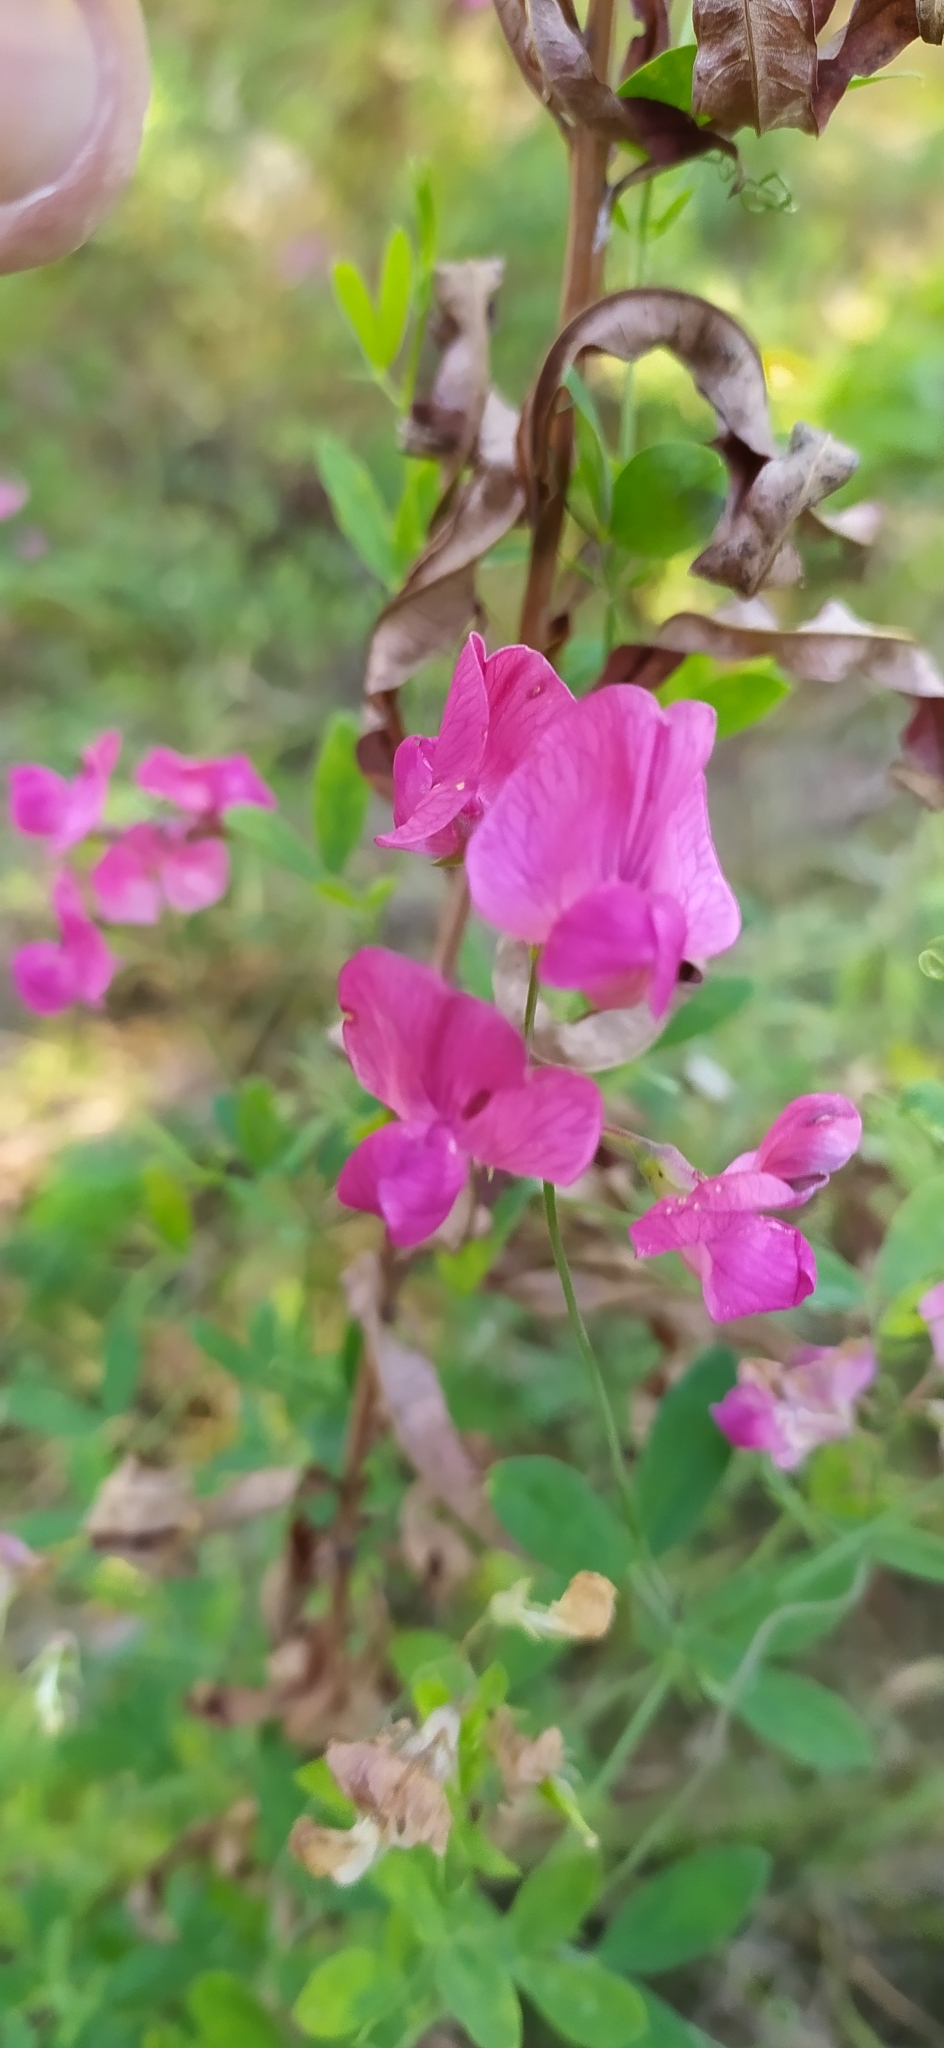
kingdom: Plantae
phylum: Tracheophyta
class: Magnoliopsida
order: Fabales
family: Fabaceae
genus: Lathyrus
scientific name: Lathyrus tuberosus
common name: Tuberous pea
